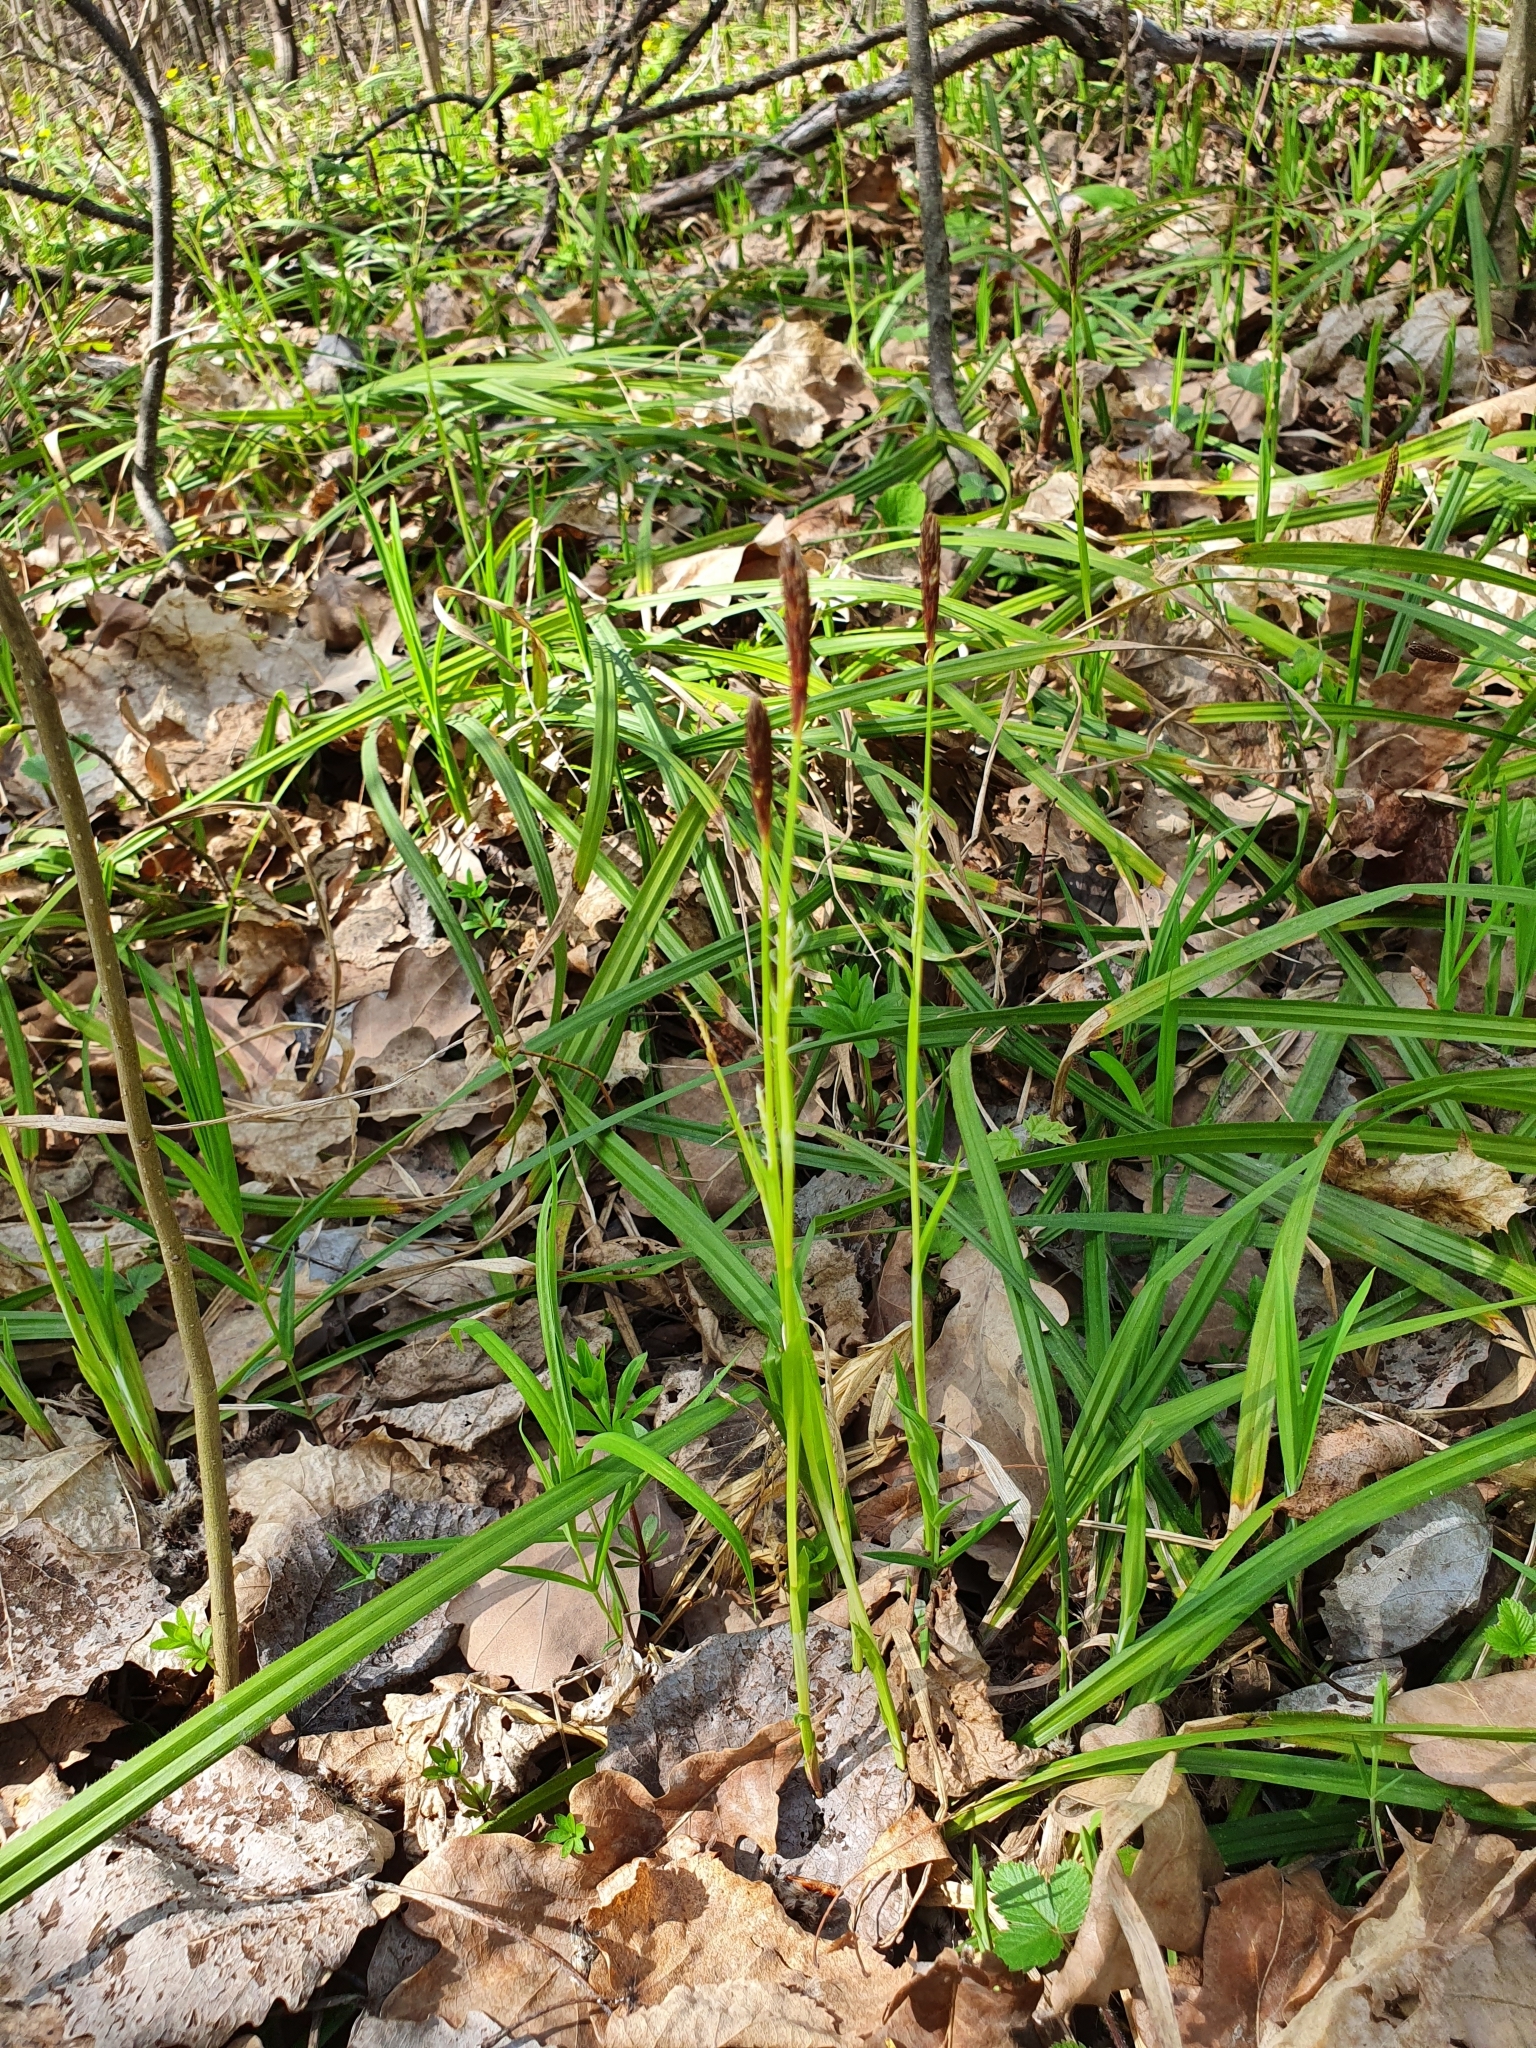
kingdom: Plantae
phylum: Tracheophyta
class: Liliopsida
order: Poales
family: Cyperaceae
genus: Carex
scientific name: Carex pilosa
